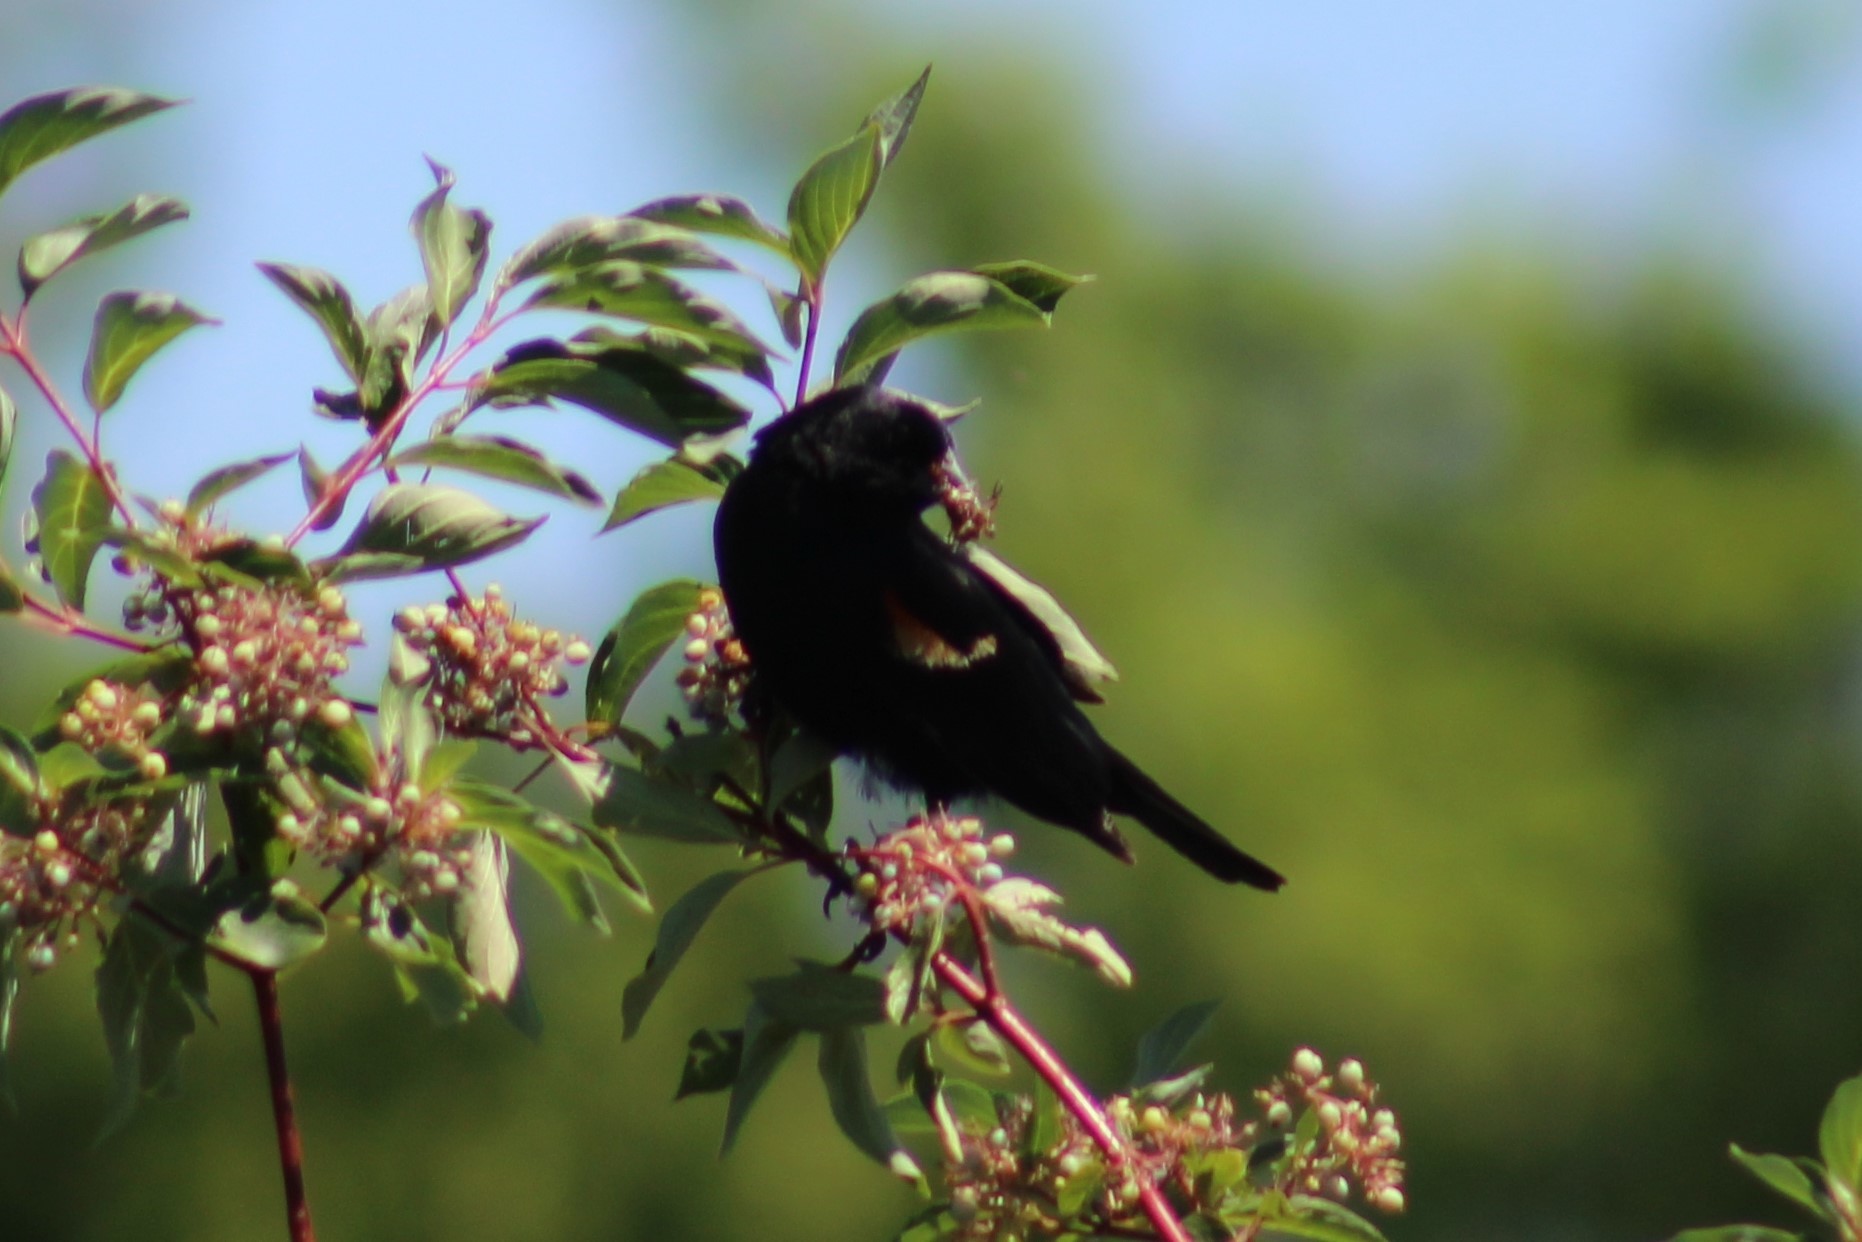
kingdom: Animalia
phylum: Chordata
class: Aves
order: Passeriformes
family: Icteridae
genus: Agelaius
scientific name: Agelaius phoeniceus
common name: Red-winged blackbird
